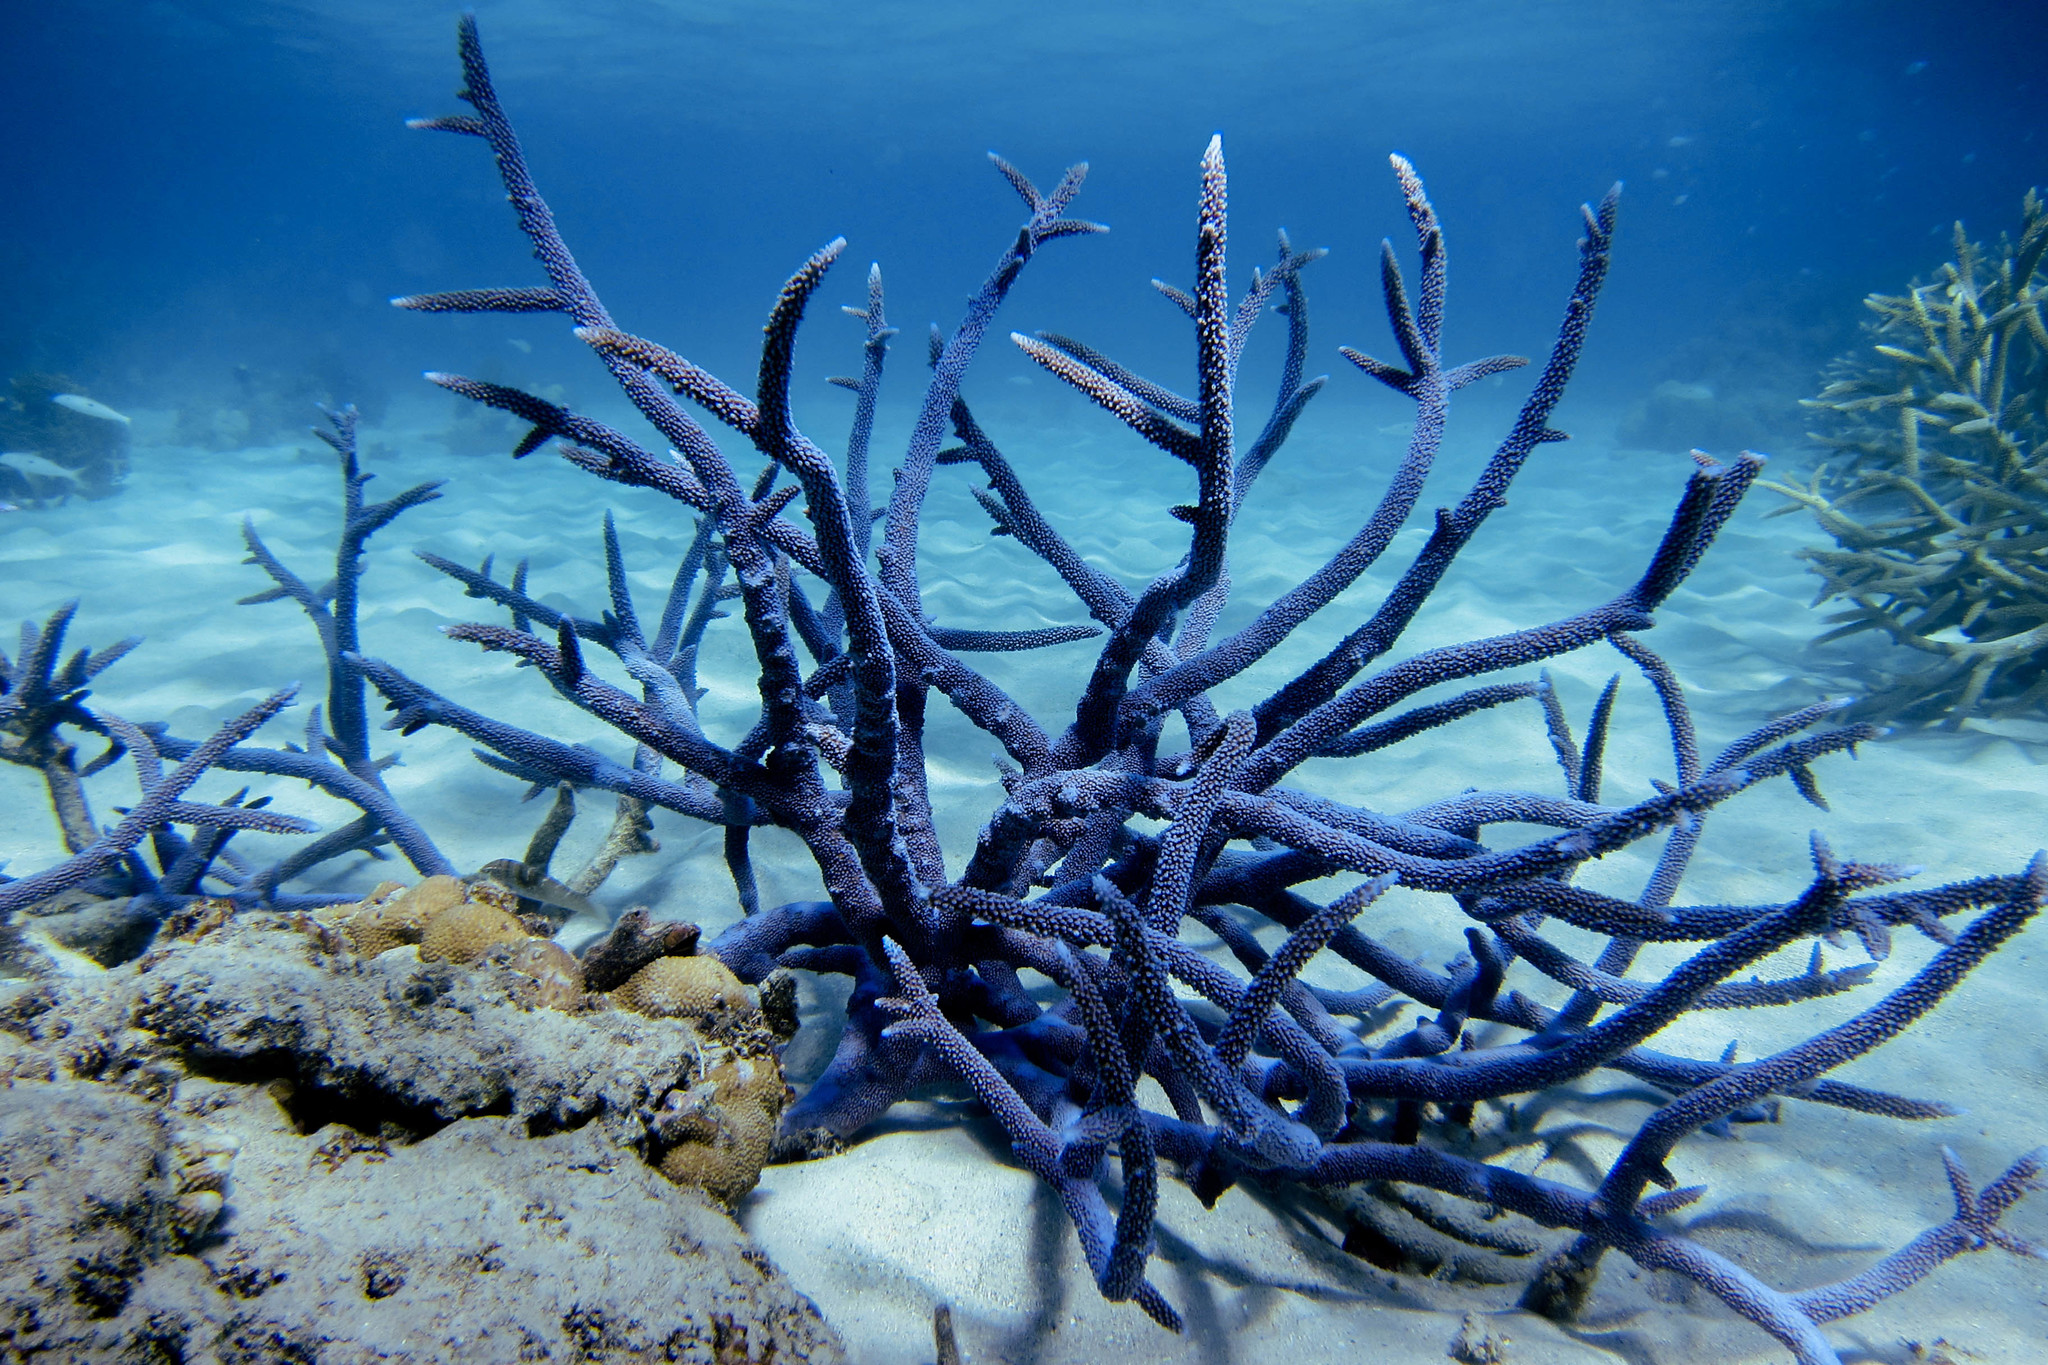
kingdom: Animalia
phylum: Cnidaria
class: Anthozoa
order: Scleractinia
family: Acroporidae
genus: Acropora
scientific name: Acropora muricata
